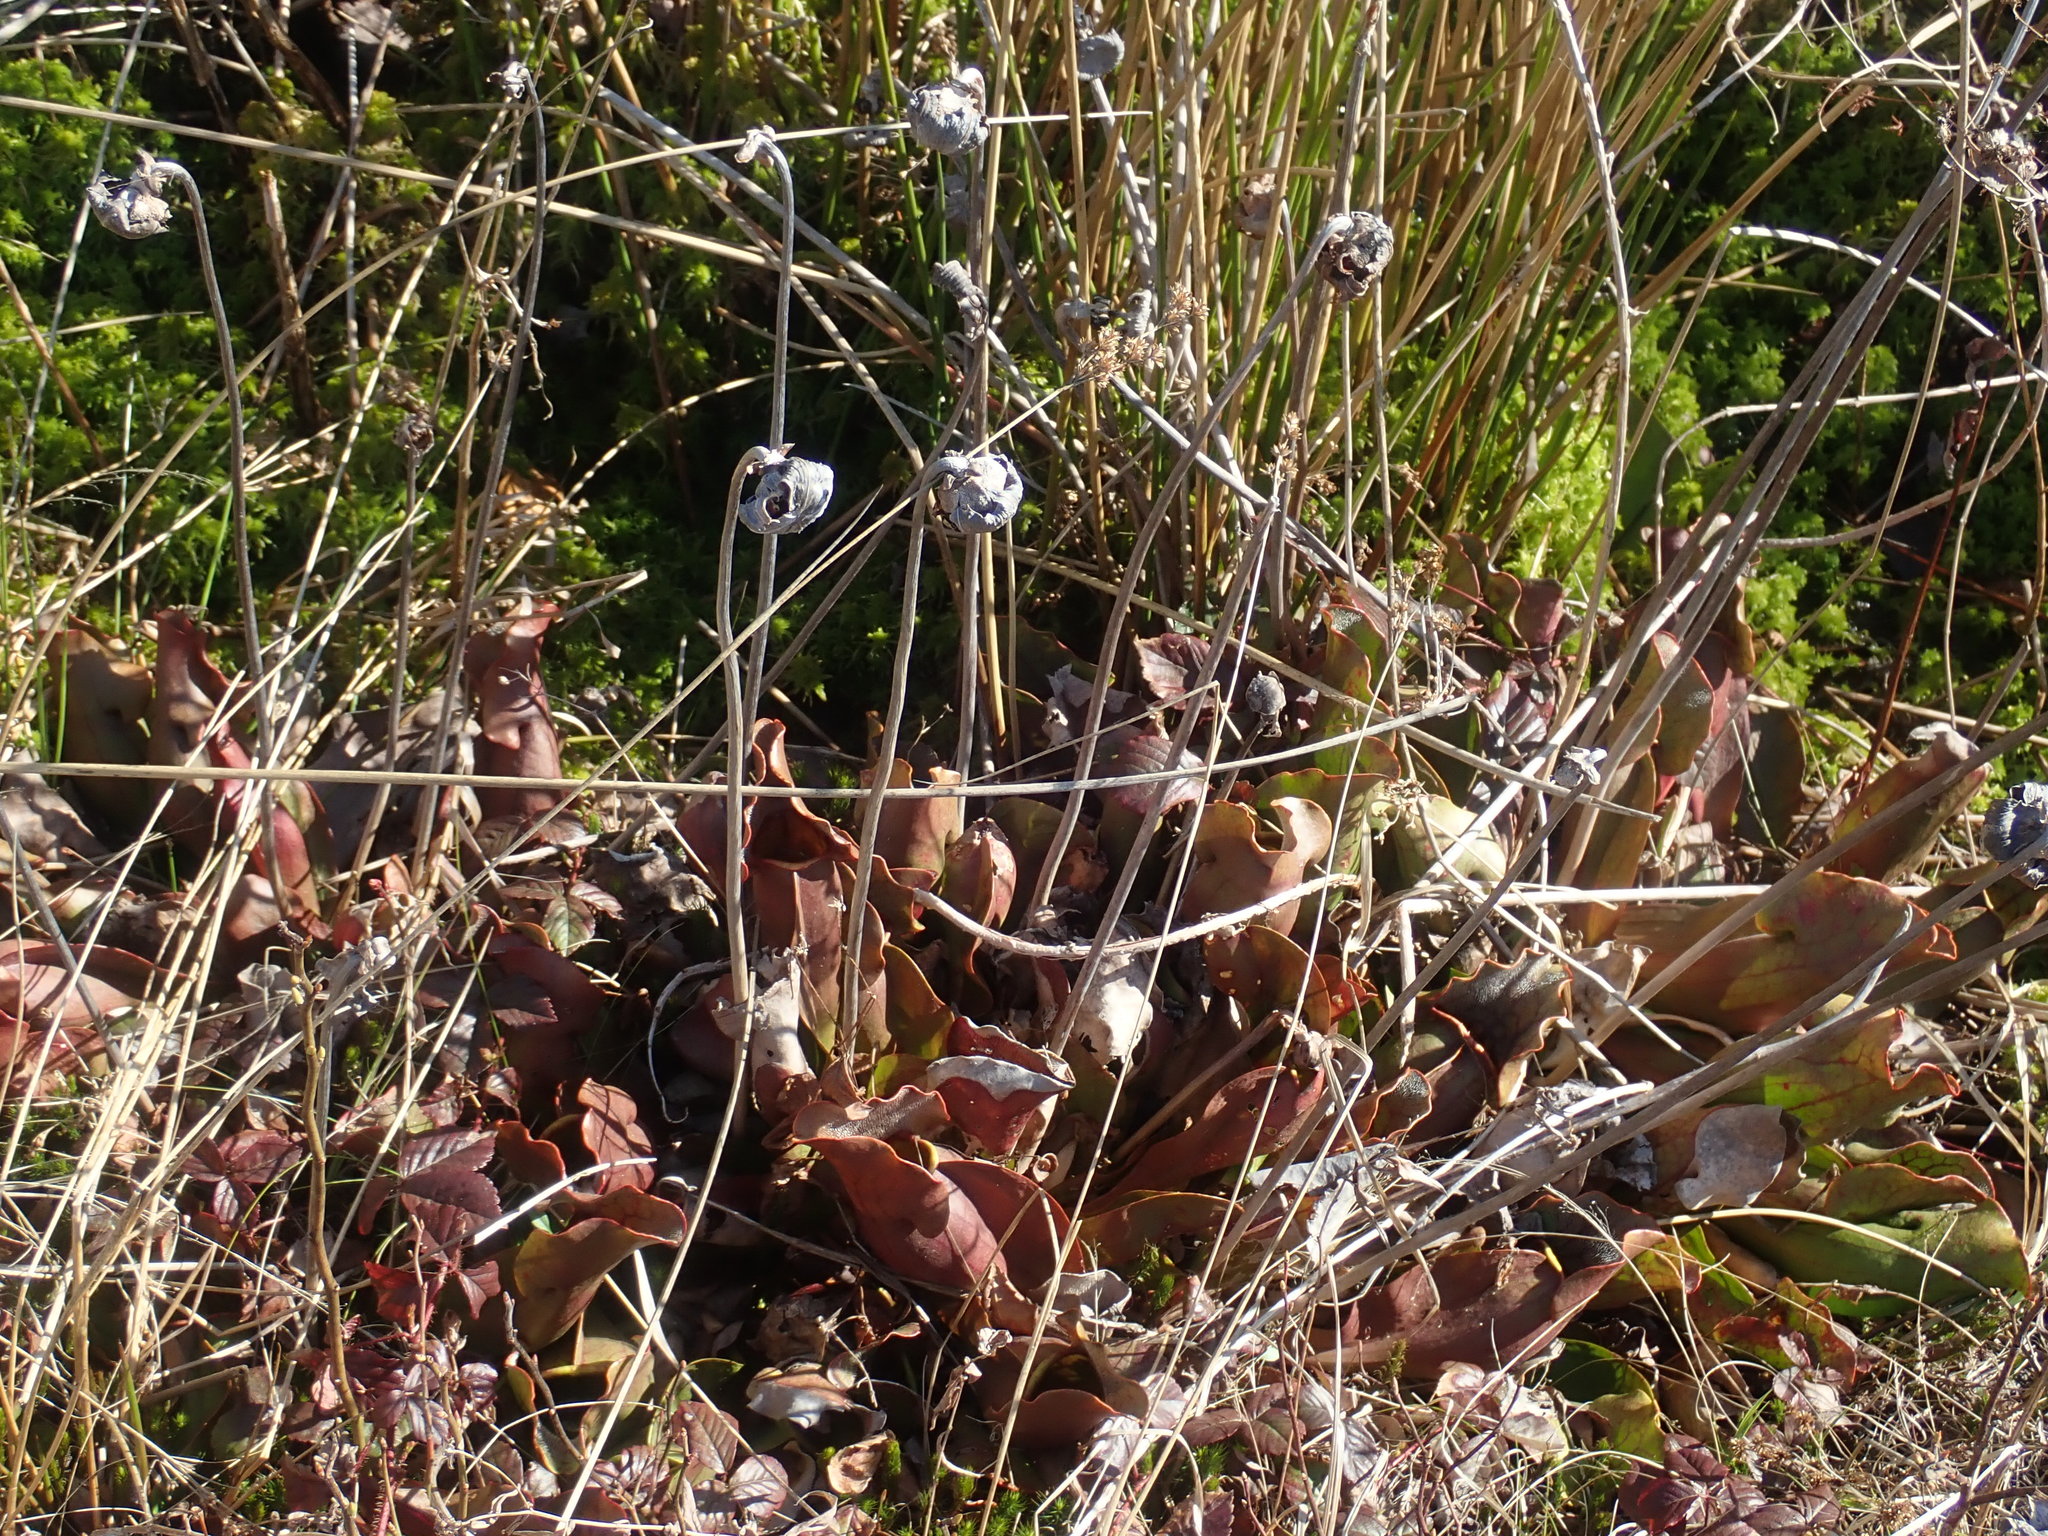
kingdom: Plantae
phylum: Tracheophyta
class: Magnoliopsida
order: Ericales
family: Sarraceniaceae
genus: Sarracenia
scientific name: Sarracenia purpurea
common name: Pitcherplant
